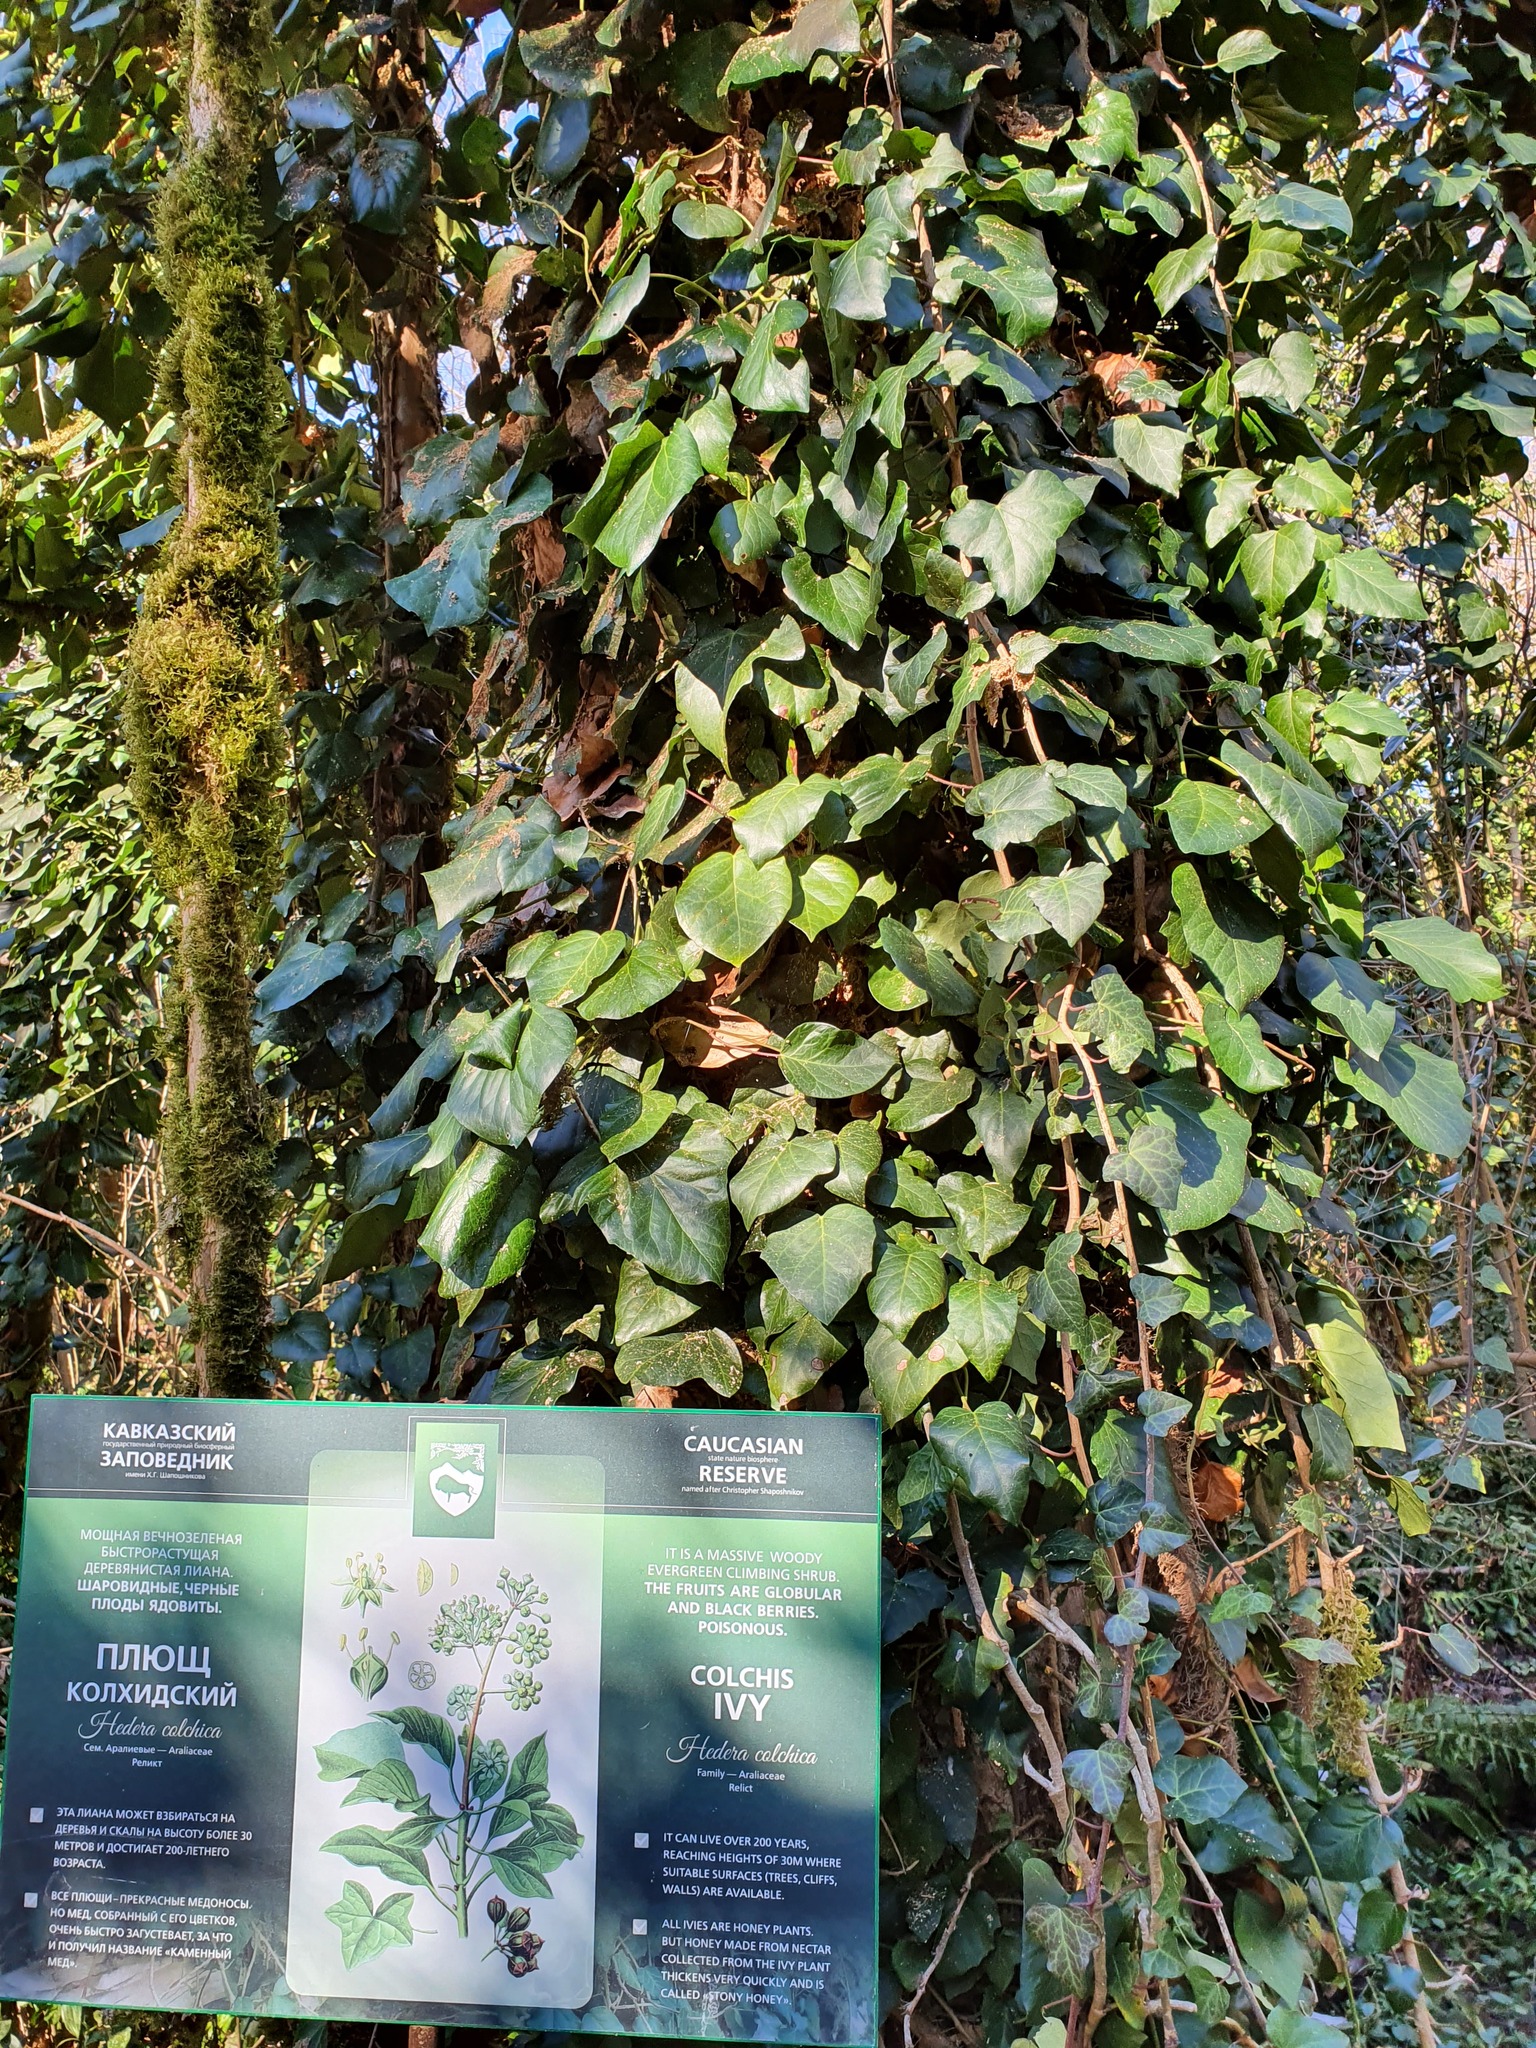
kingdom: Plantae
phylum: Tracheophyta
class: Magnoliopsida
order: Apiales
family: Araliaceae
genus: Hedera
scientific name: Hedera colchica
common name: Persian ivy
